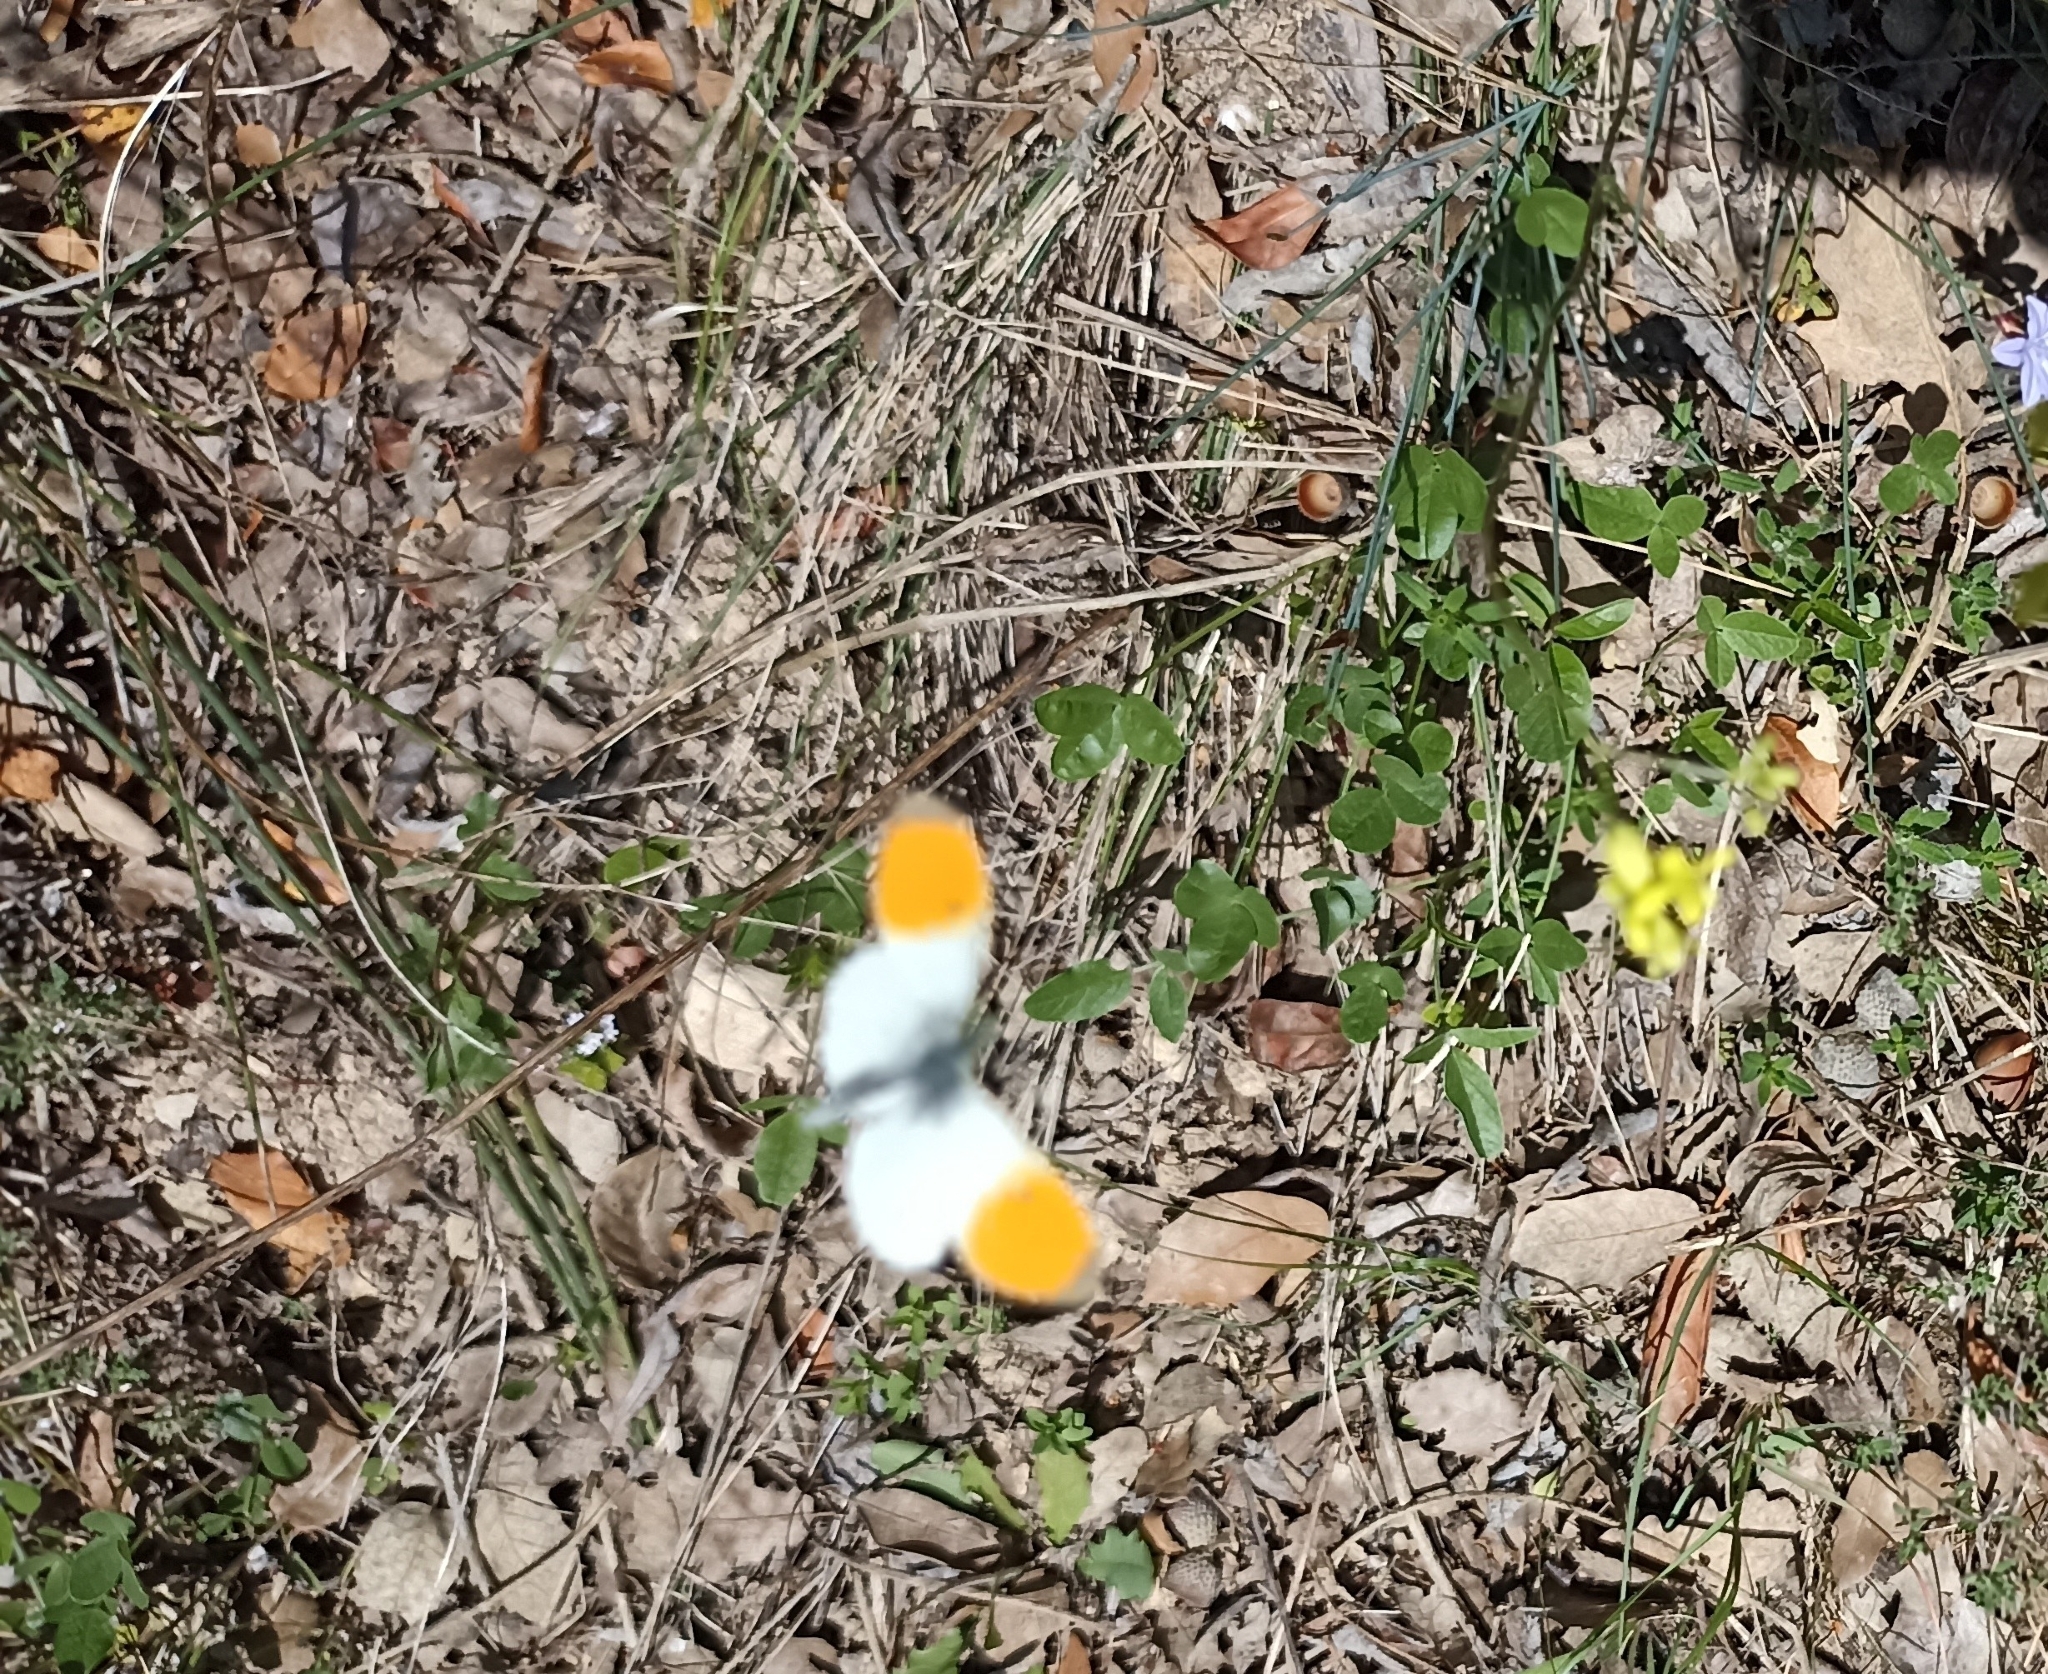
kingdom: Animalia
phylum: Arthropoda
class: Insecta
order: Lepidoptera
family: Pieridae
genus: Anthocharis
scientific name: Anthocharis cardamines
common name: Orange-tip
